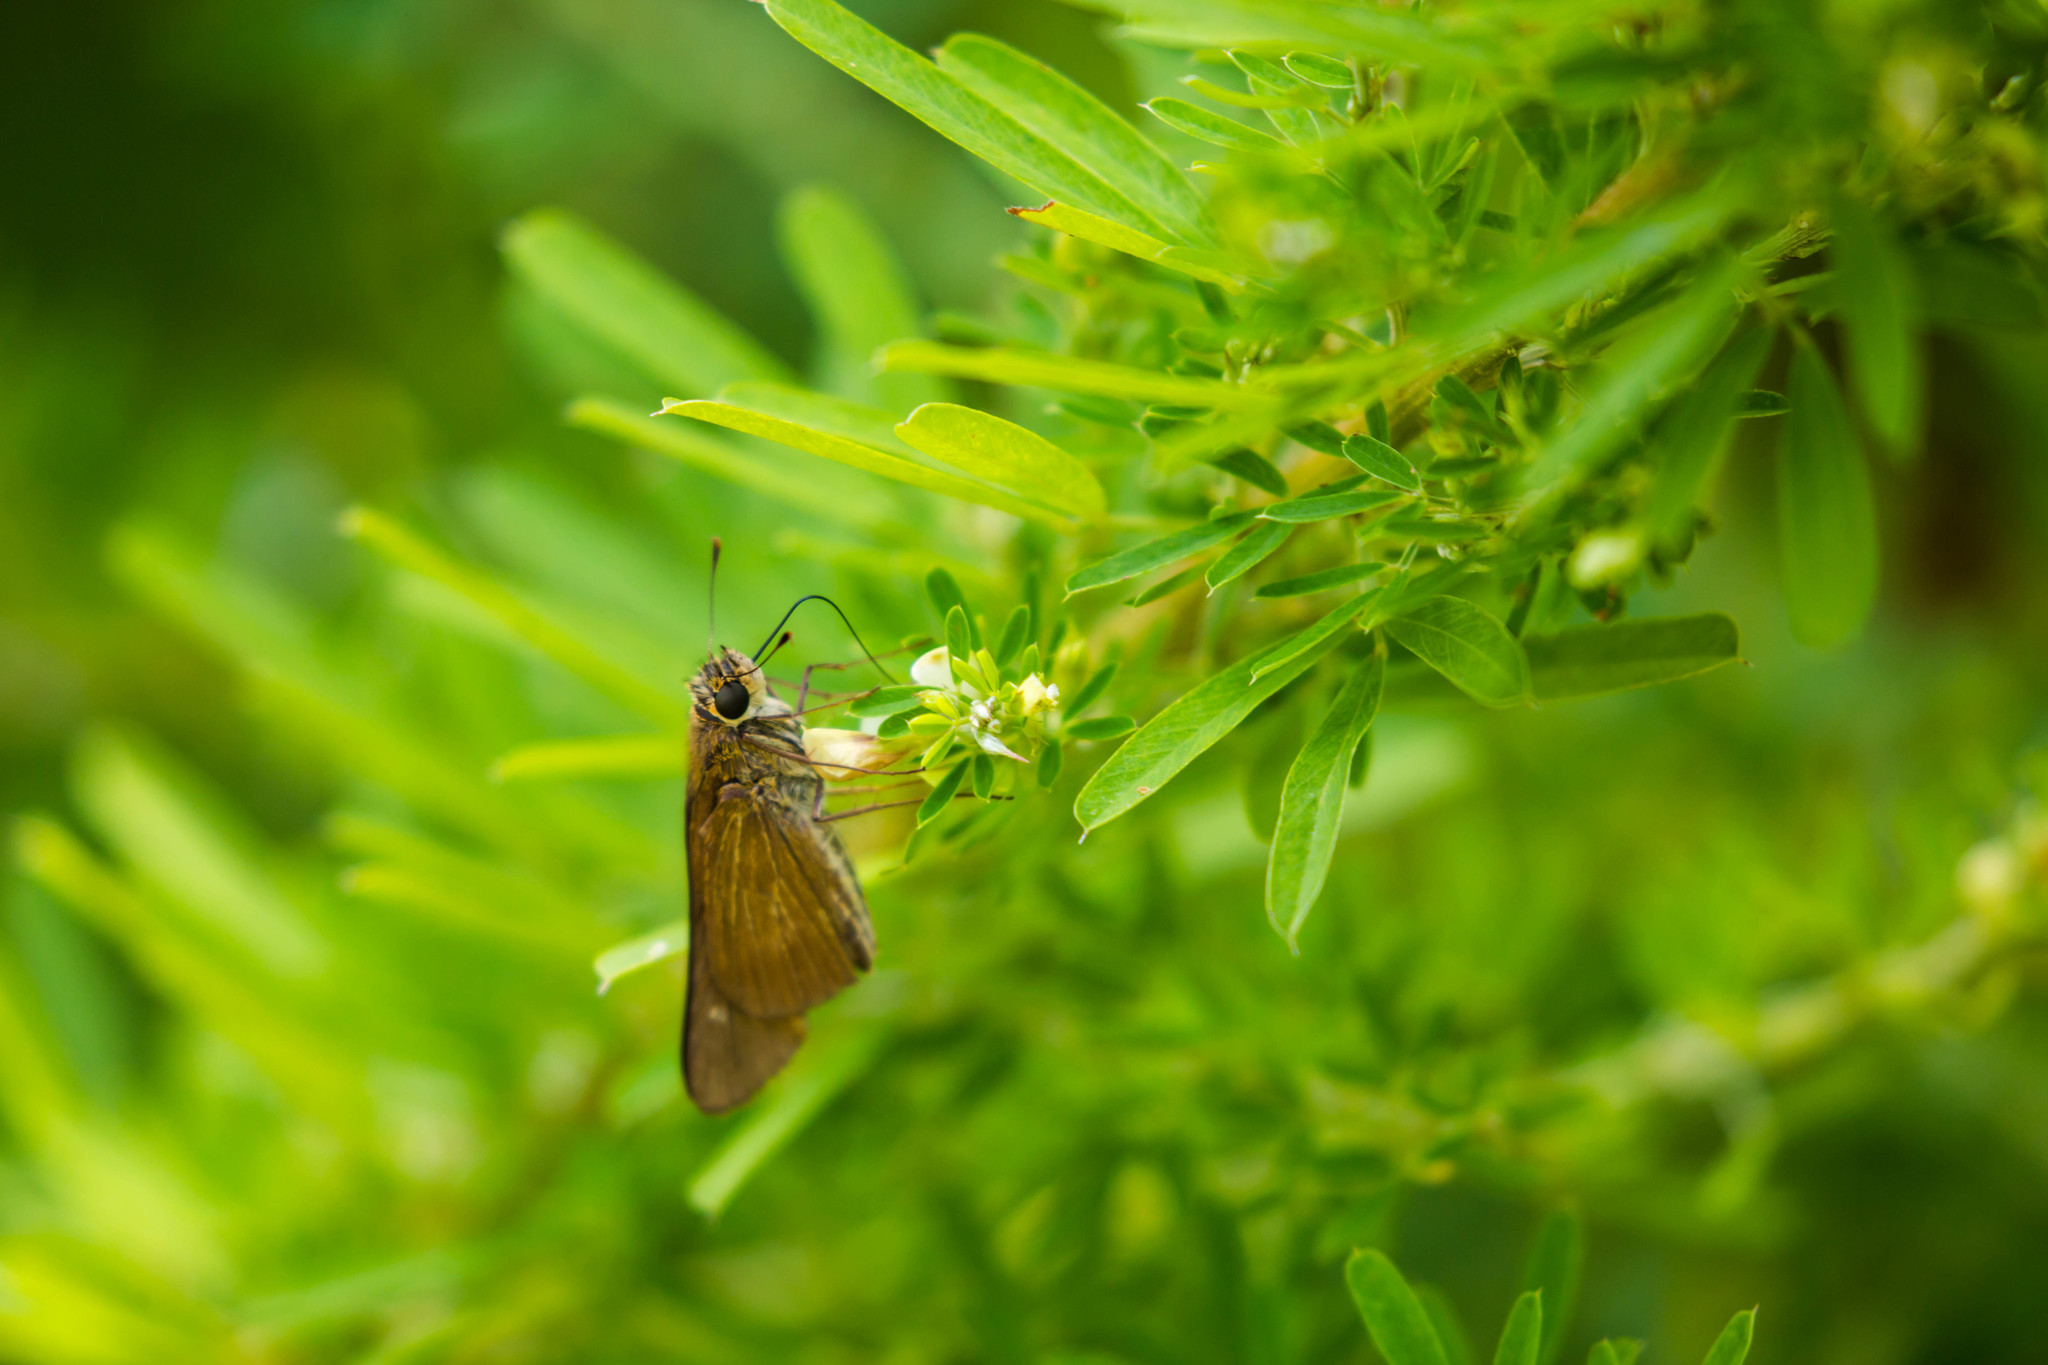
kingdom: Animalia
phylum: Arthropoda
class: Insecta
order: Lepidoptera
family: Hesperiidae
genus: Panoquina
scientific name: Panoquina ocola
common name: Ocola skipper
